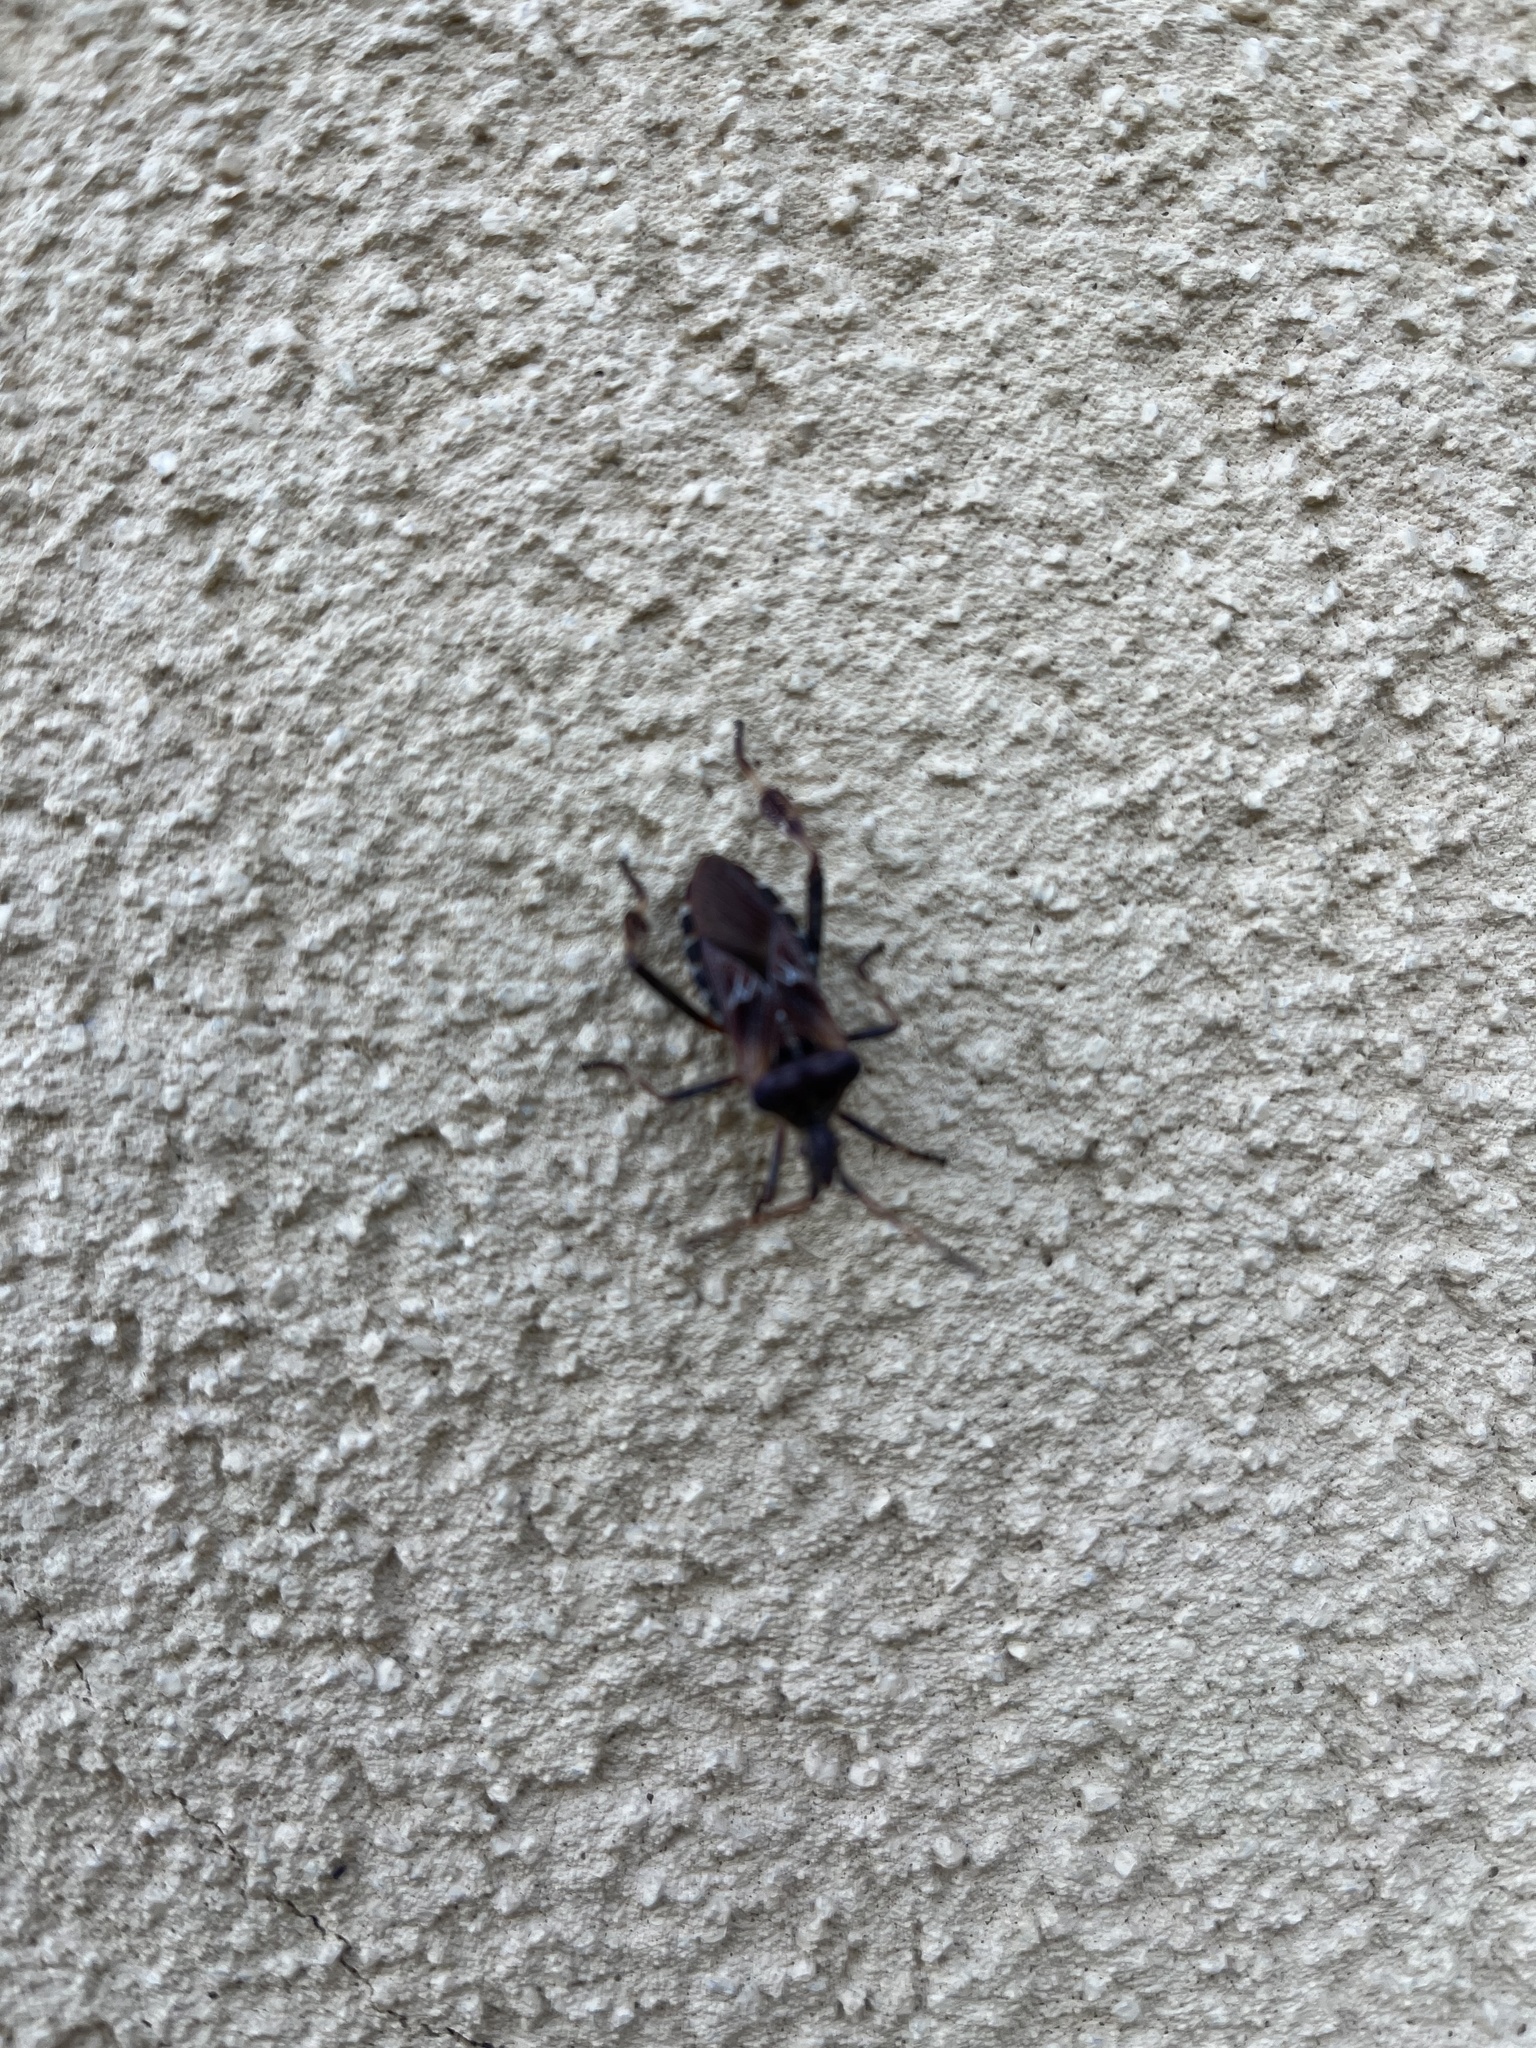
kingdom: Animalia
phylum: Arthropoda
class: Insecta
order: Hemiptera
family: Coreidae
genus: Leptoglossus
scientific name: Leptoglossus occidentalis
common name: Western conifer-seed bug
